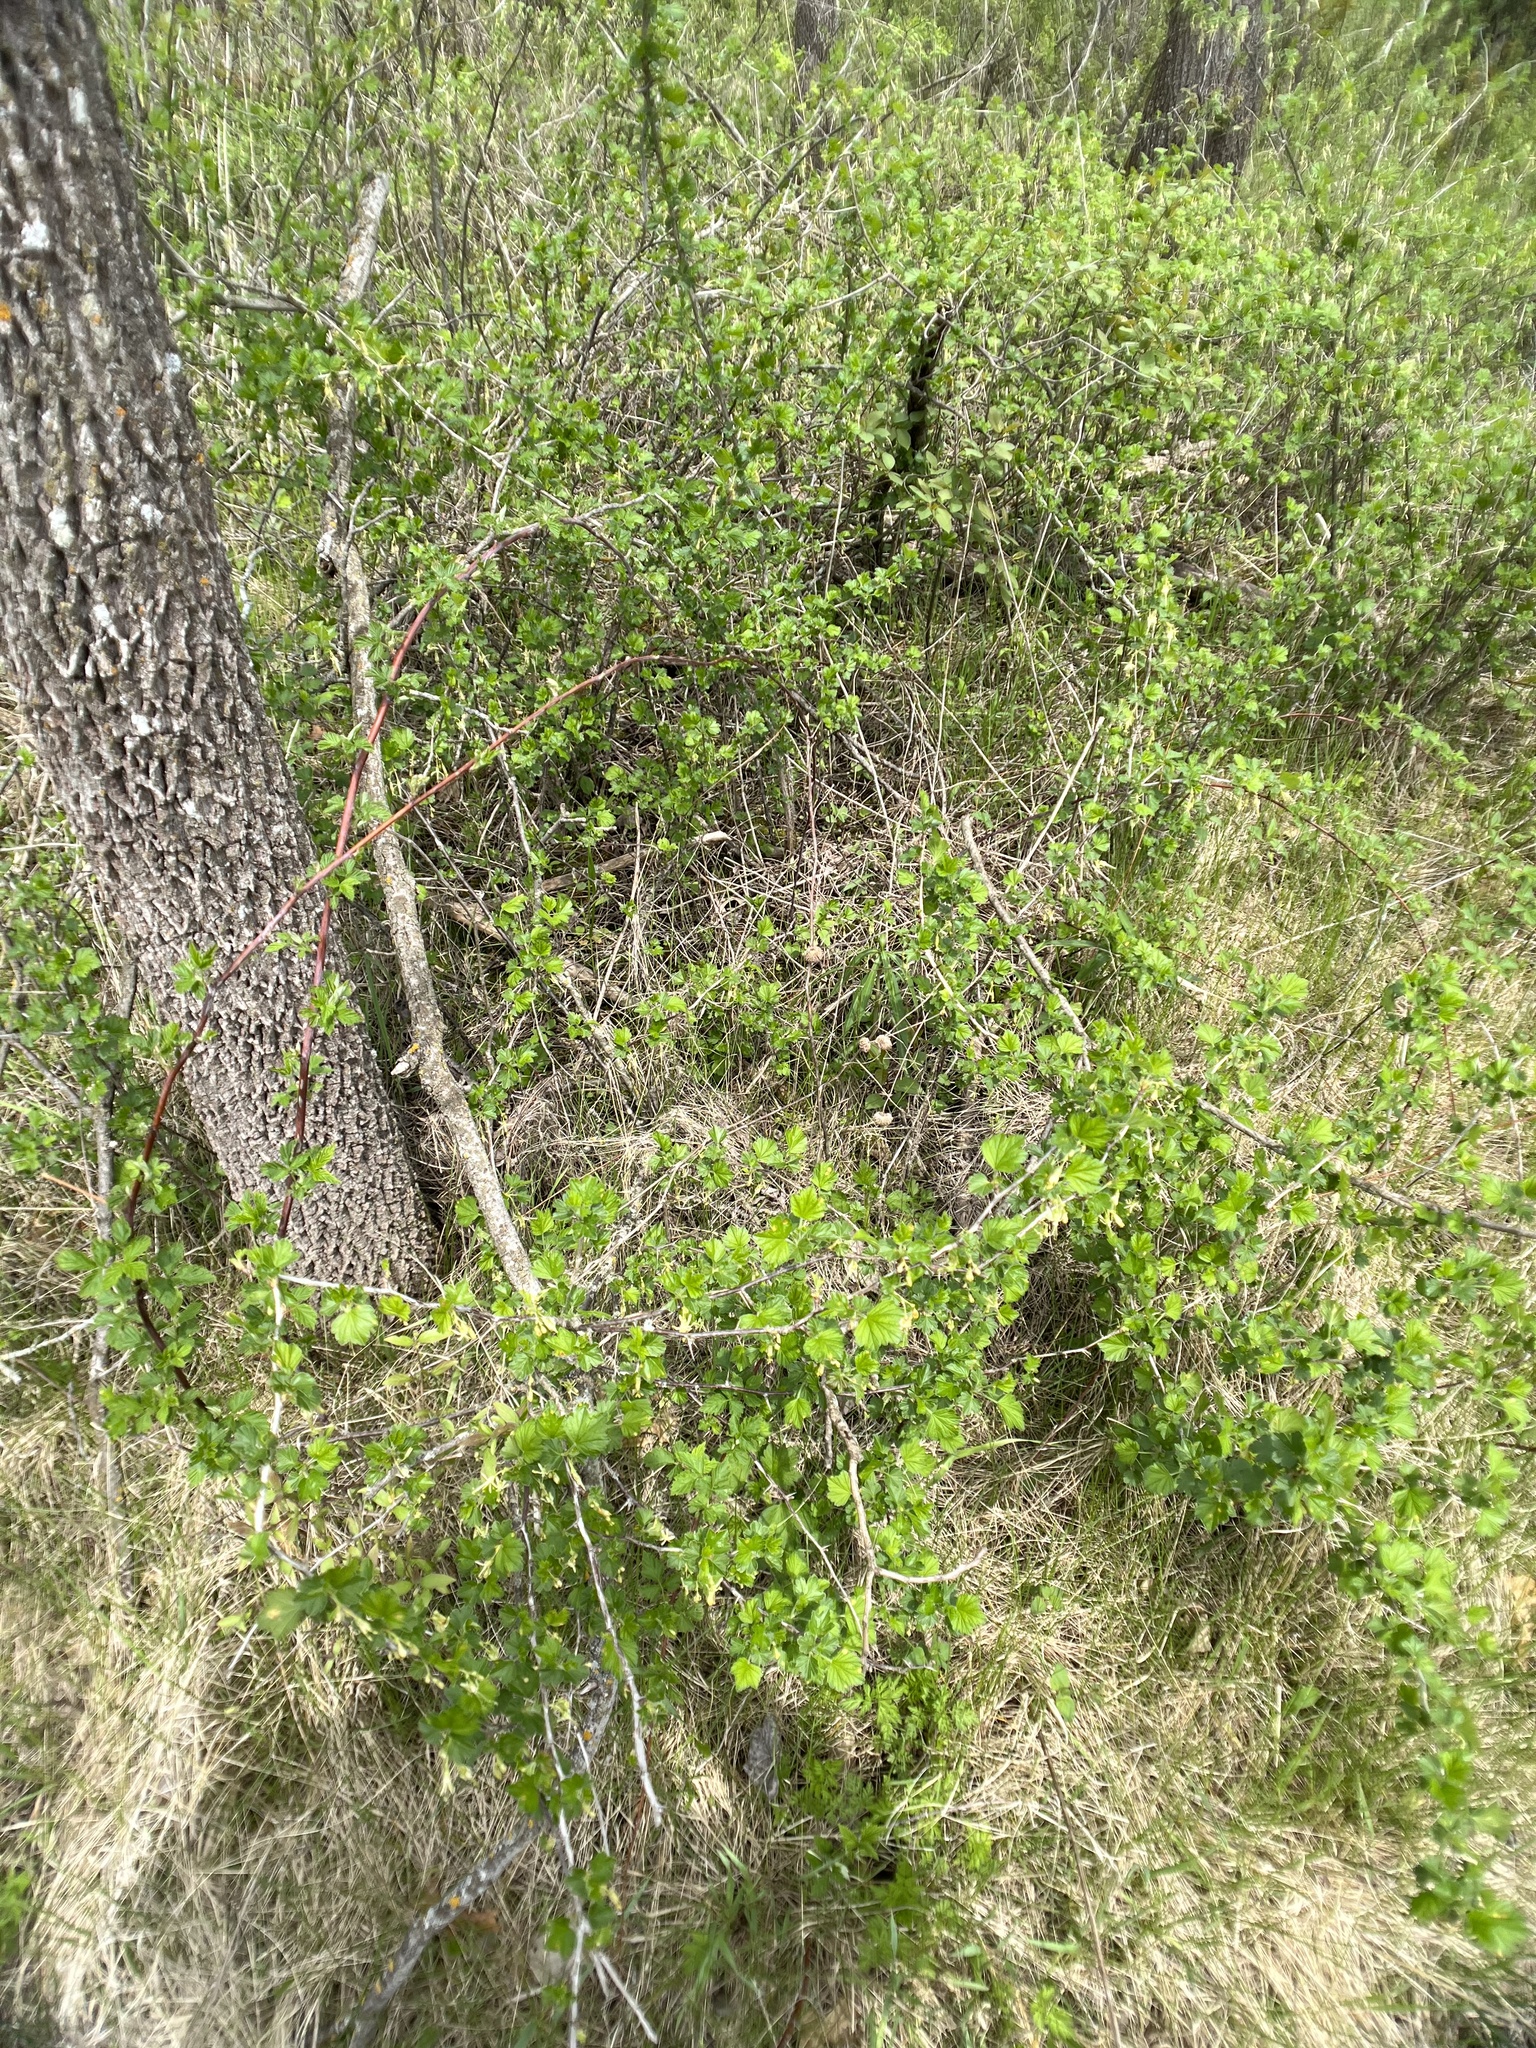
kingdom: Plantae
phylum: Tracheophyta
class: Magnoliopsida
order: Saxifragales
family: Grossulariaceae
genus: Ribes
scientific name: Ribes missouriense
